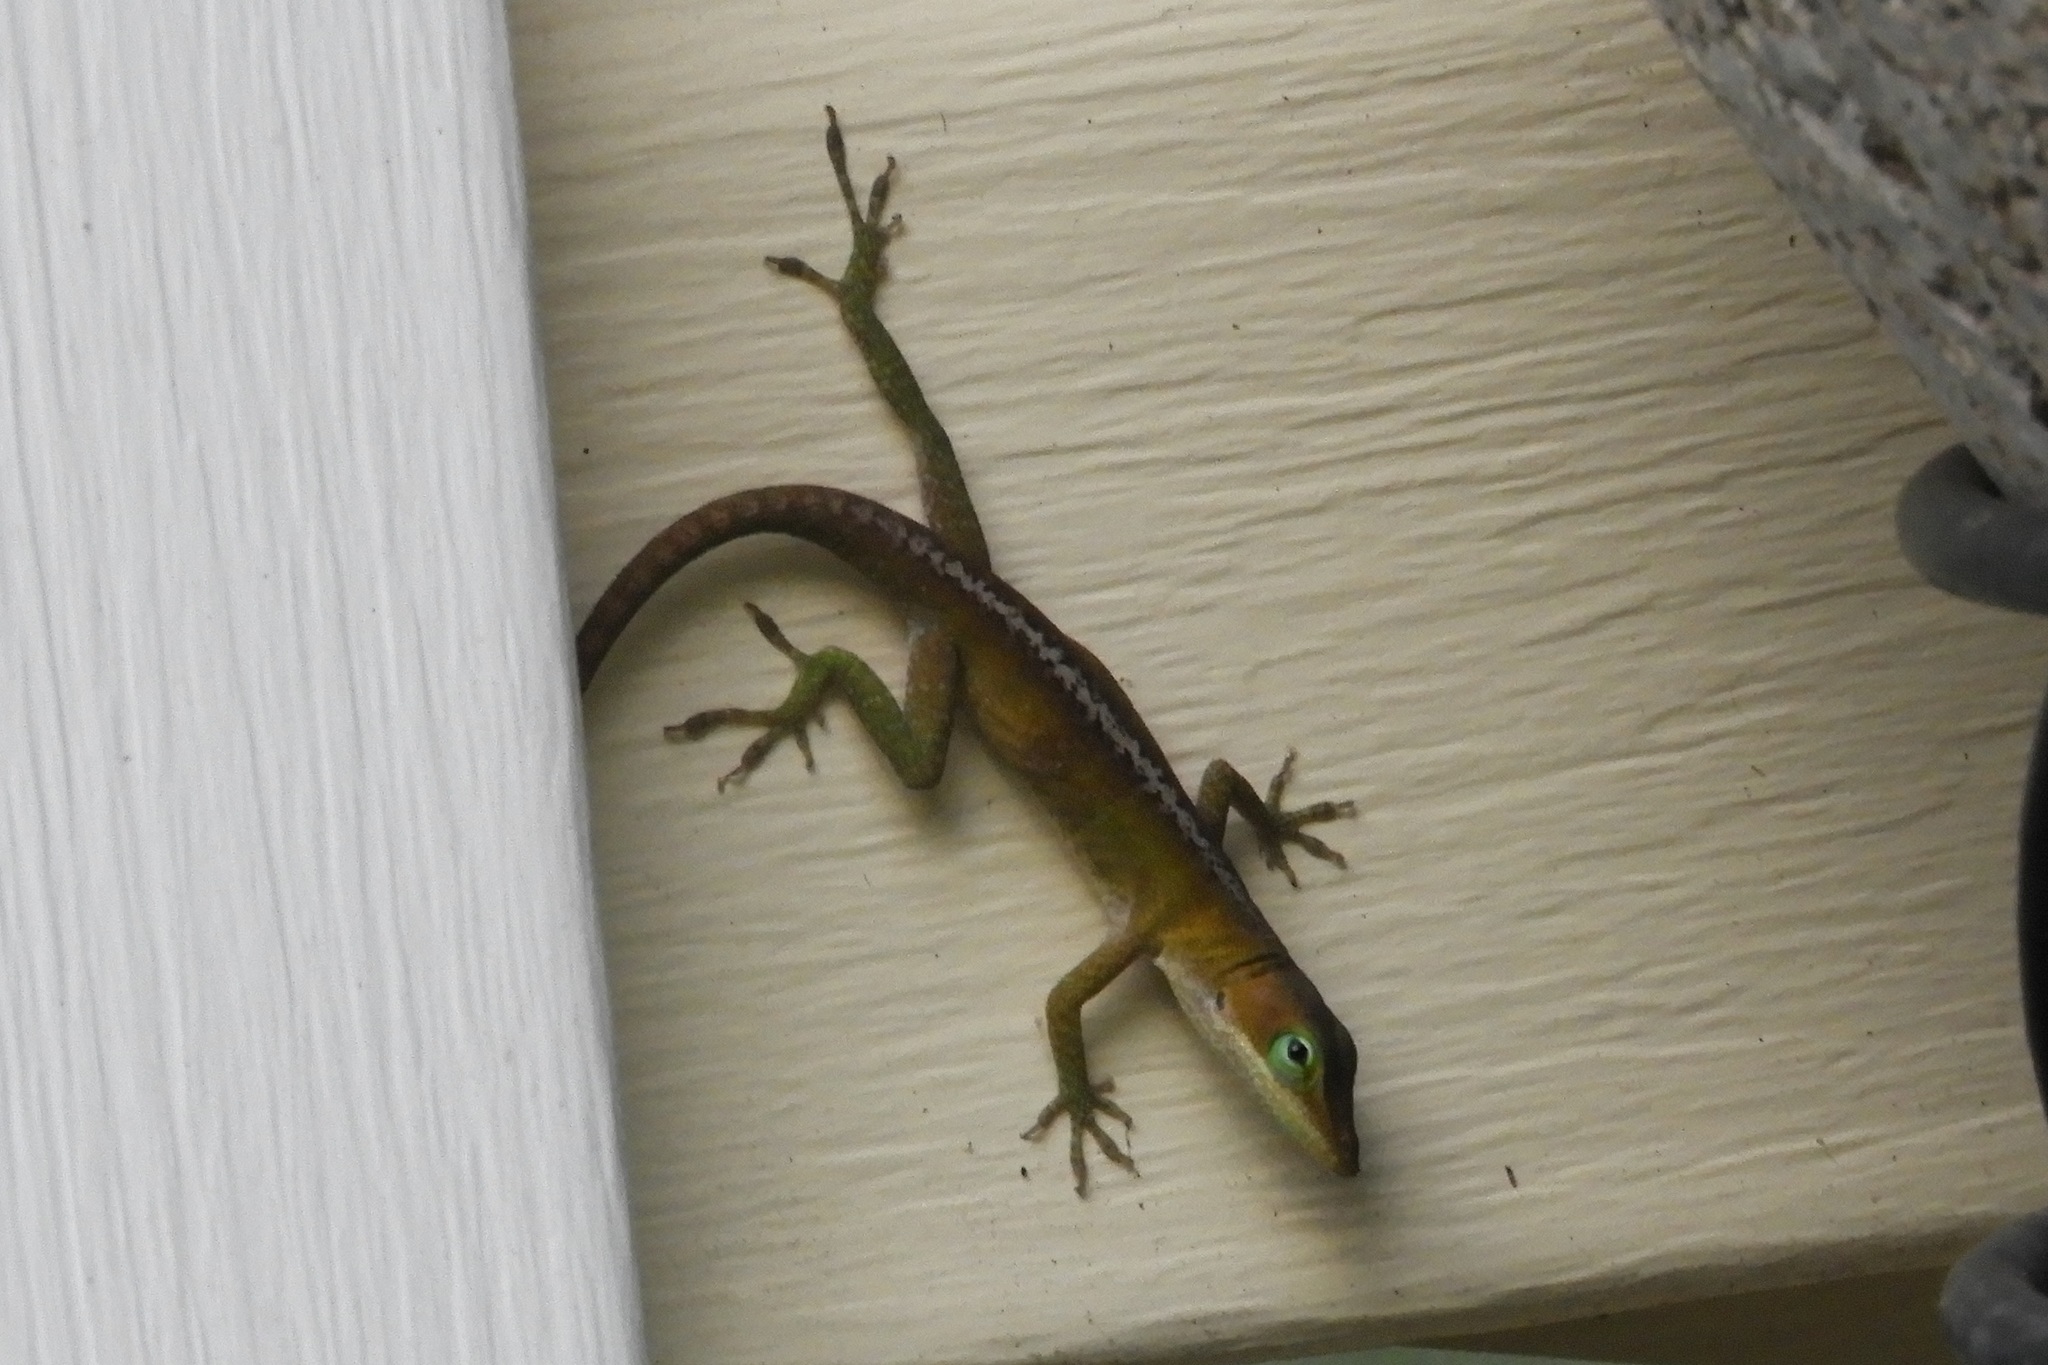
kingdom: Animalia
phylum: Chordata
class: Squamata
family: Dactyloidae
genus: Anolis
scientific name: Anolis carolinensis
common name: Green anole
